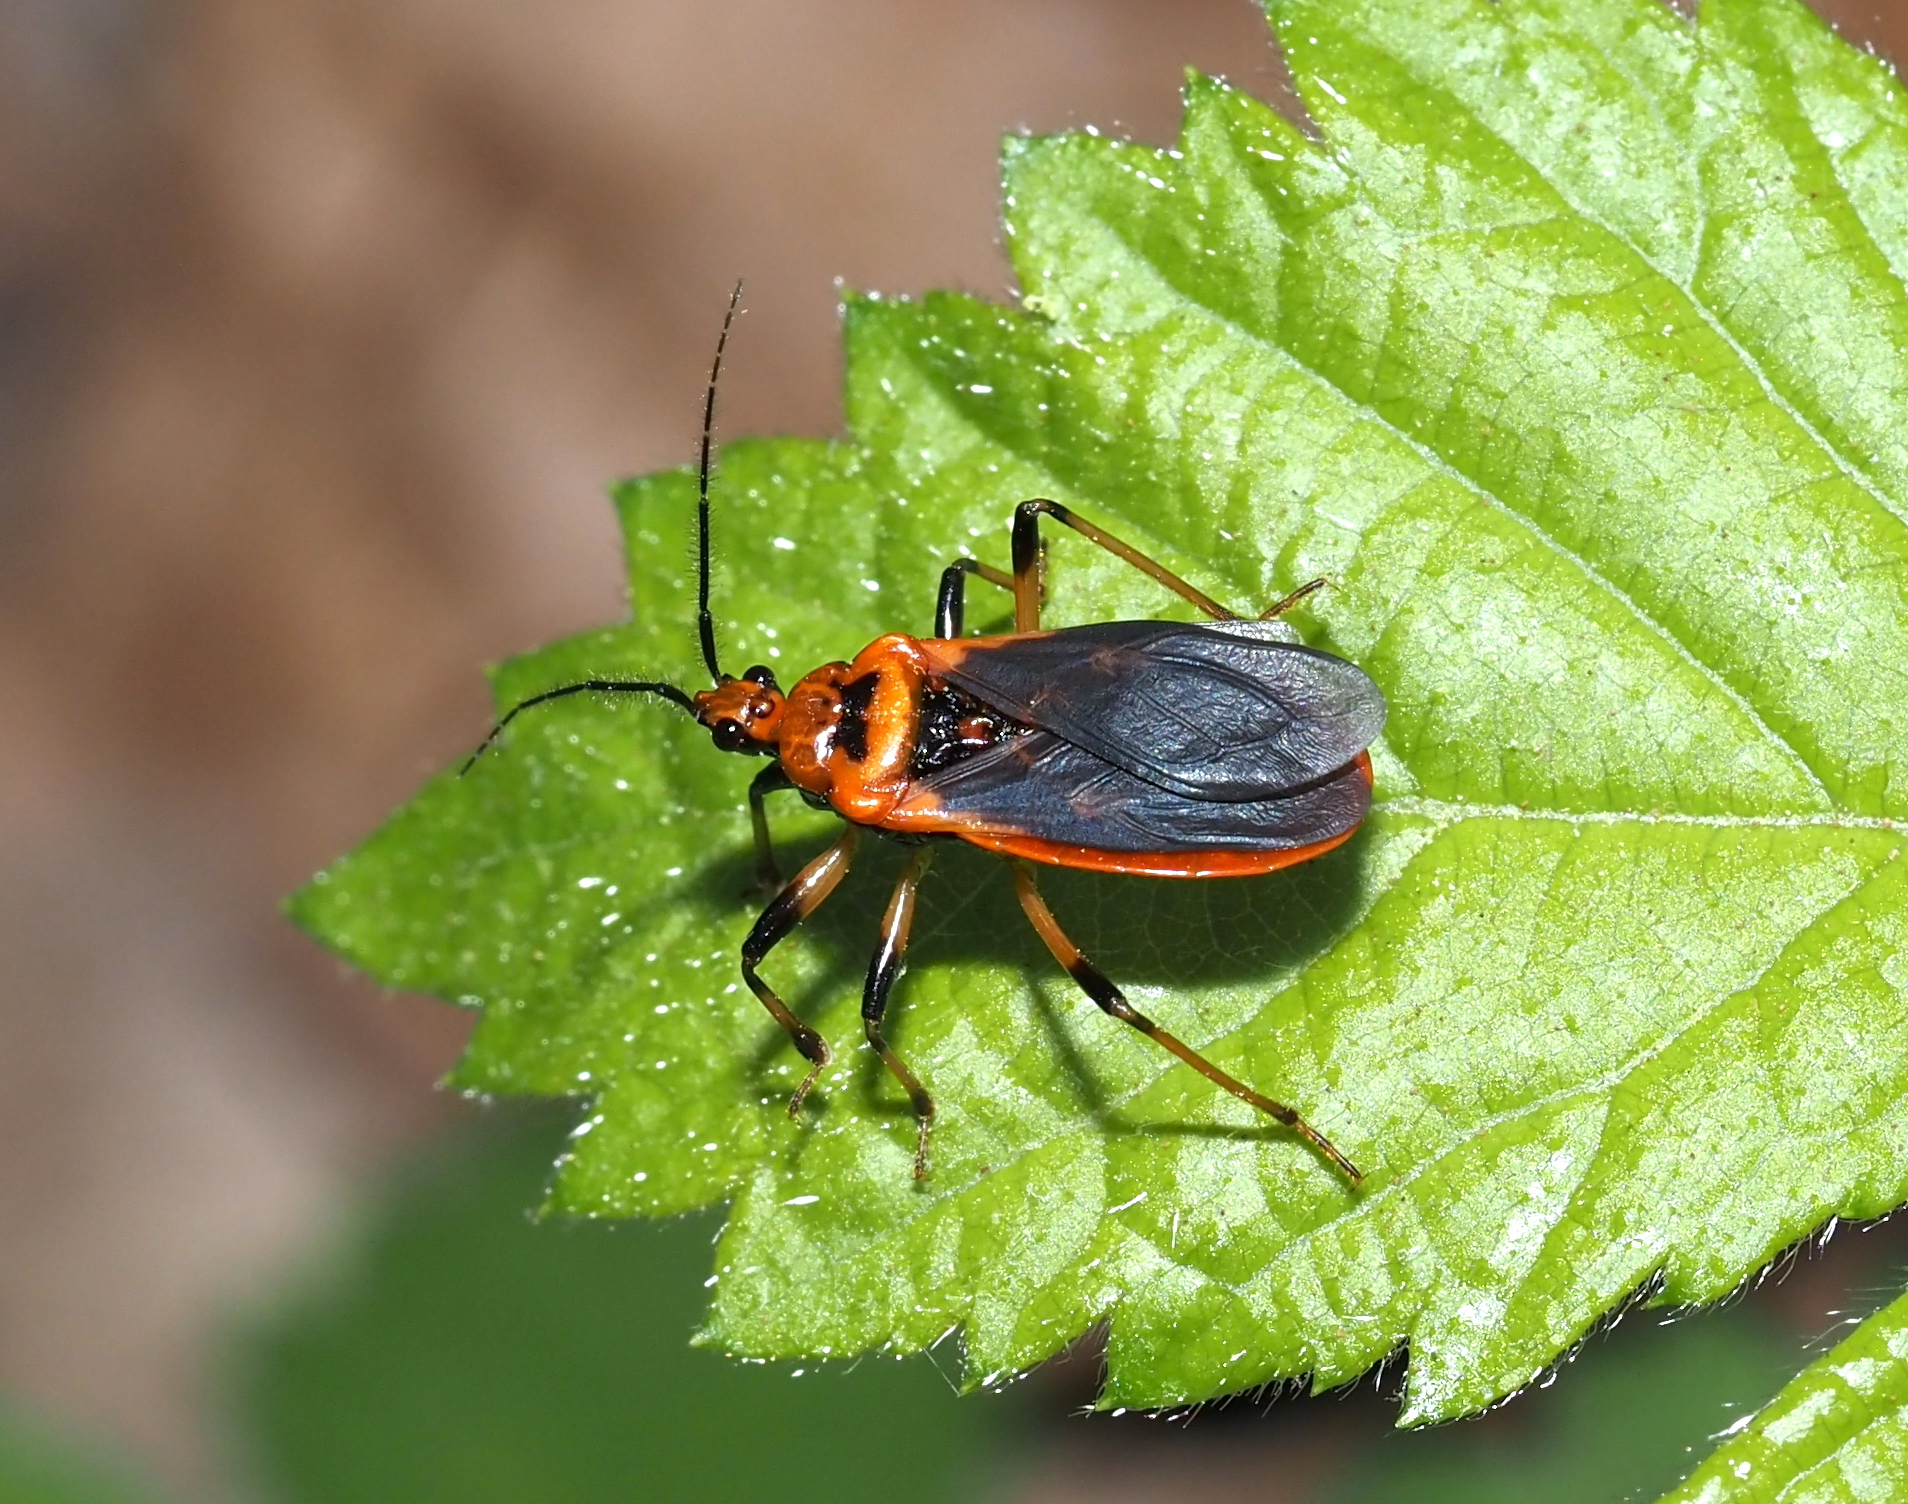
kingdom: Animalia
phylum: Arthropoda
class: Insecta
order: Hemiptera
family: Reduviidae
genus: Rhiginia
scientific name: Rhiginia cruciata
